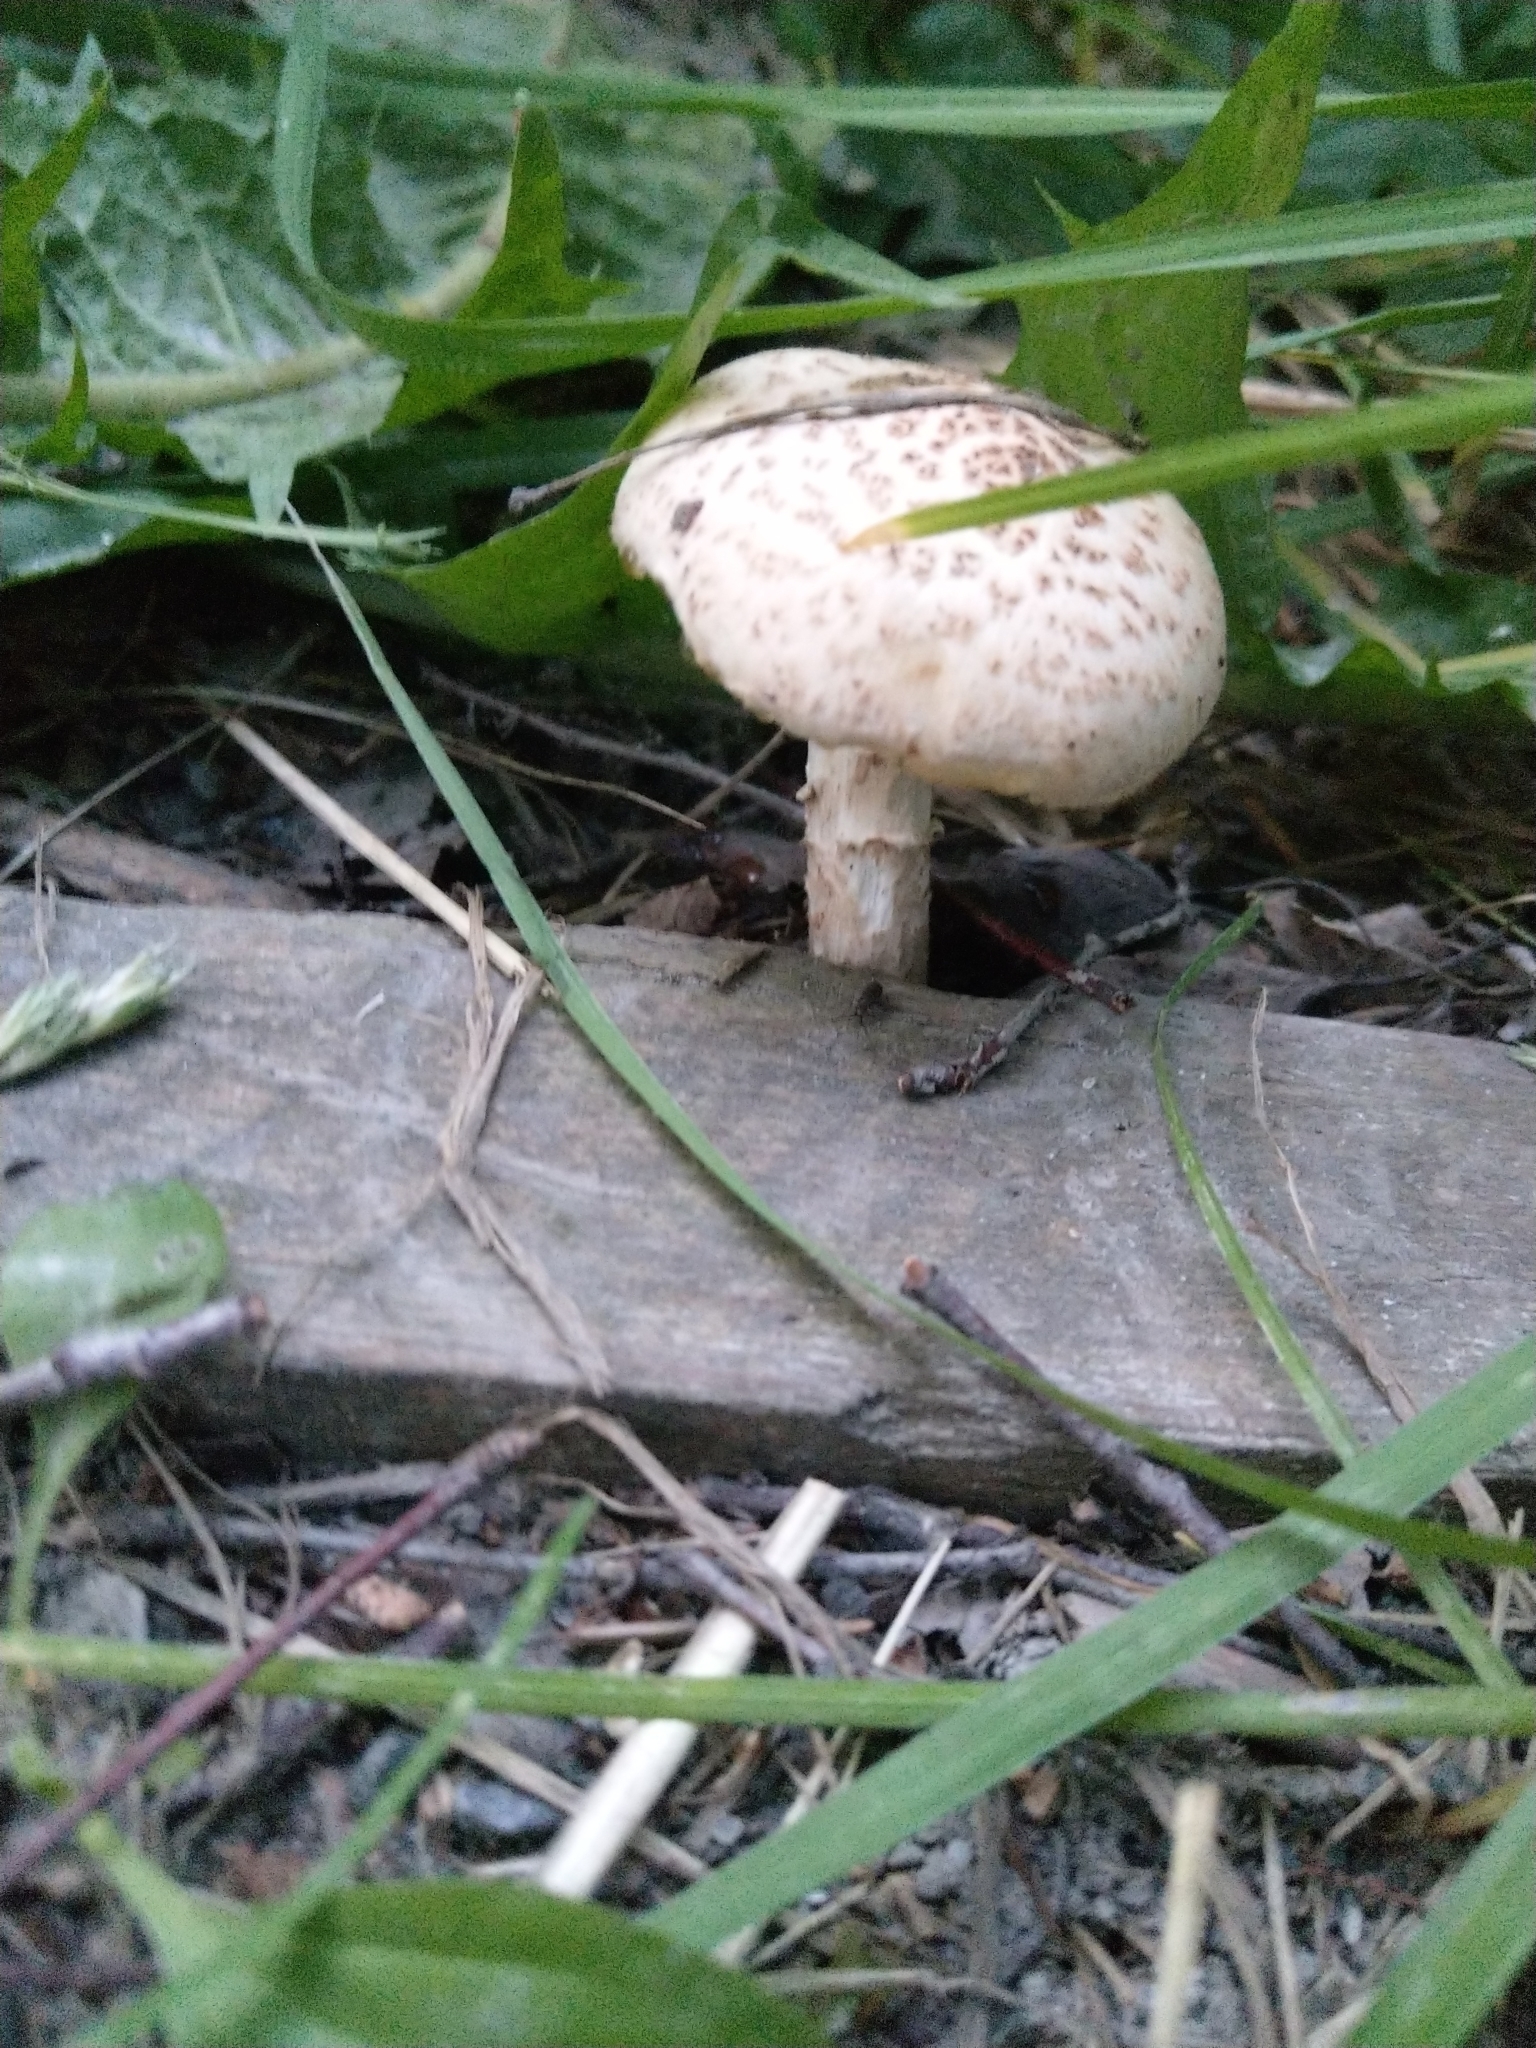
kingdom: Fungi
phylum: Basidiomycota
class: Agaricomycetes
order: Gloeophyllales
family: Gloeophyllaceae
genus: Neolentinus
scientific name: Neolentinus lepideus
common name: Scaly sawgill
